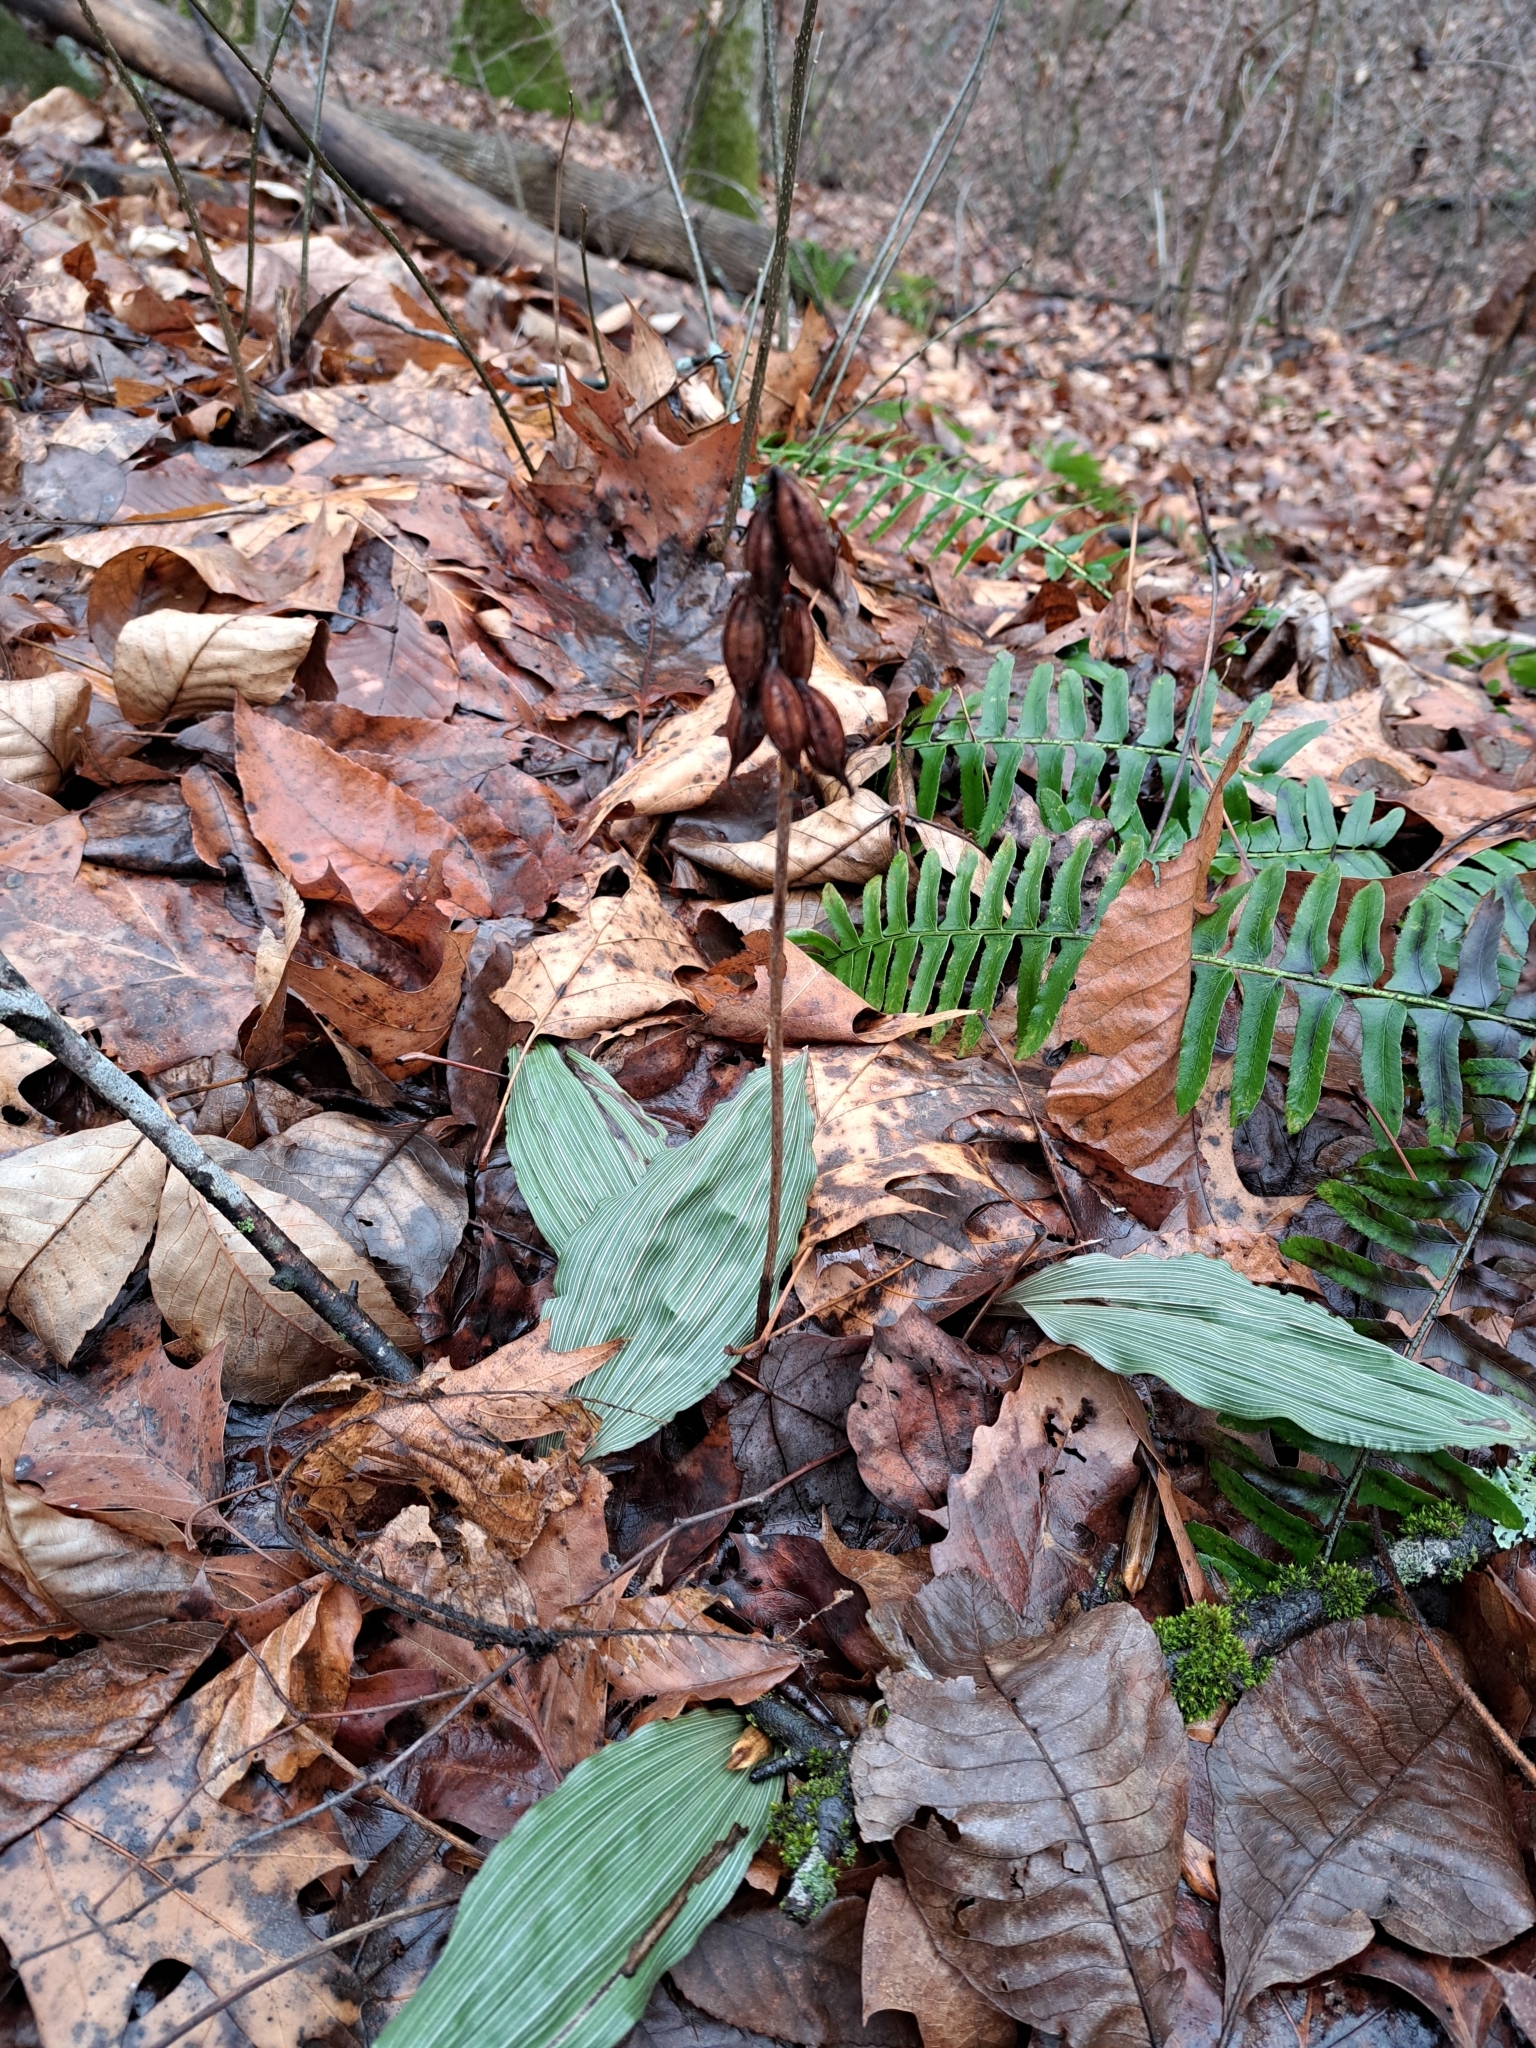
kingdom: Plantae
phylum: Tracheophyta
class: Liliopsida
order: Asparagales
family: Orchidaceae
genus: Aplectrum
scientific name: Aplectrum hyemale
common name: Adam-and-eve
